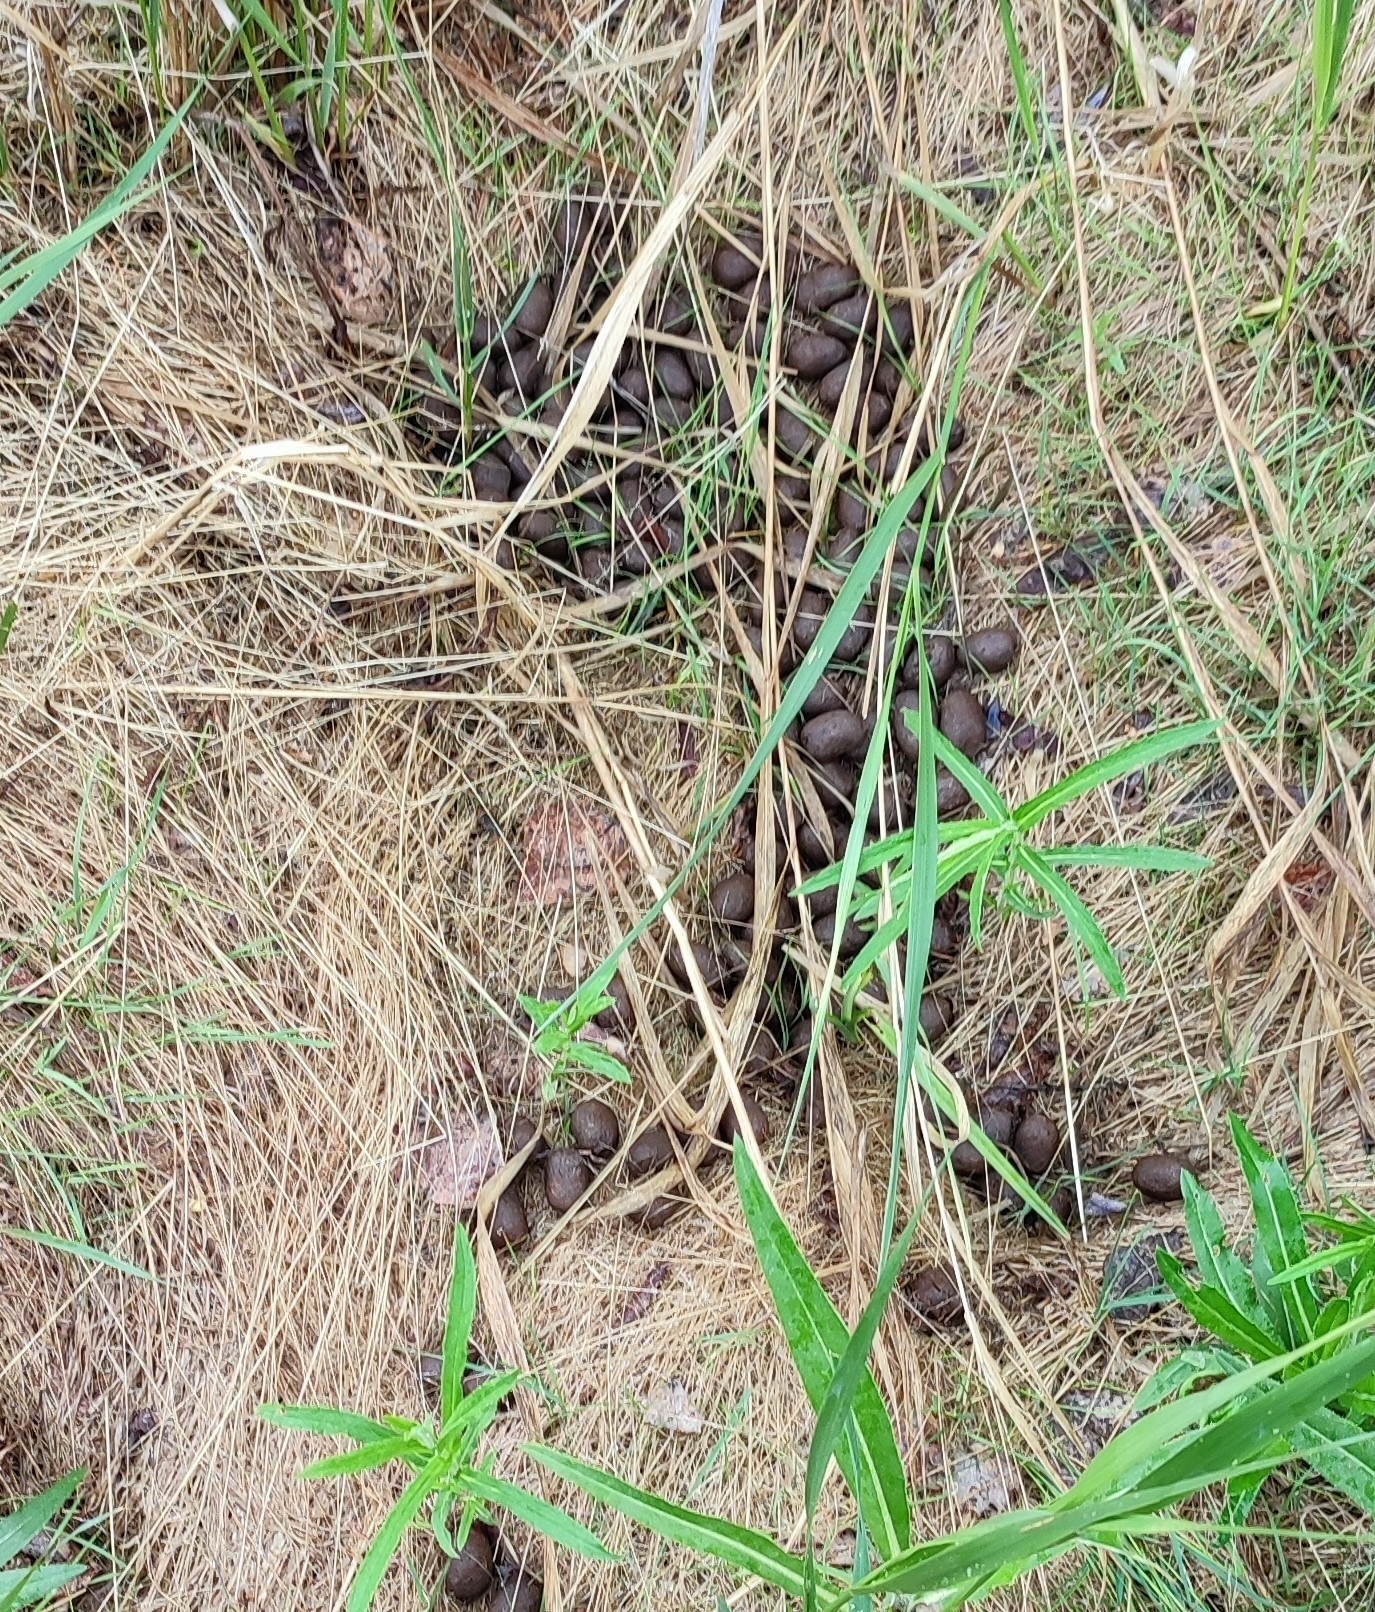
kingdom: Animalia
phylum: Chordata
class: Mammalia
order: Artiodactyla
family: Cervidae
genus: Alces
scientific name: Alces alces
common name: Moose
